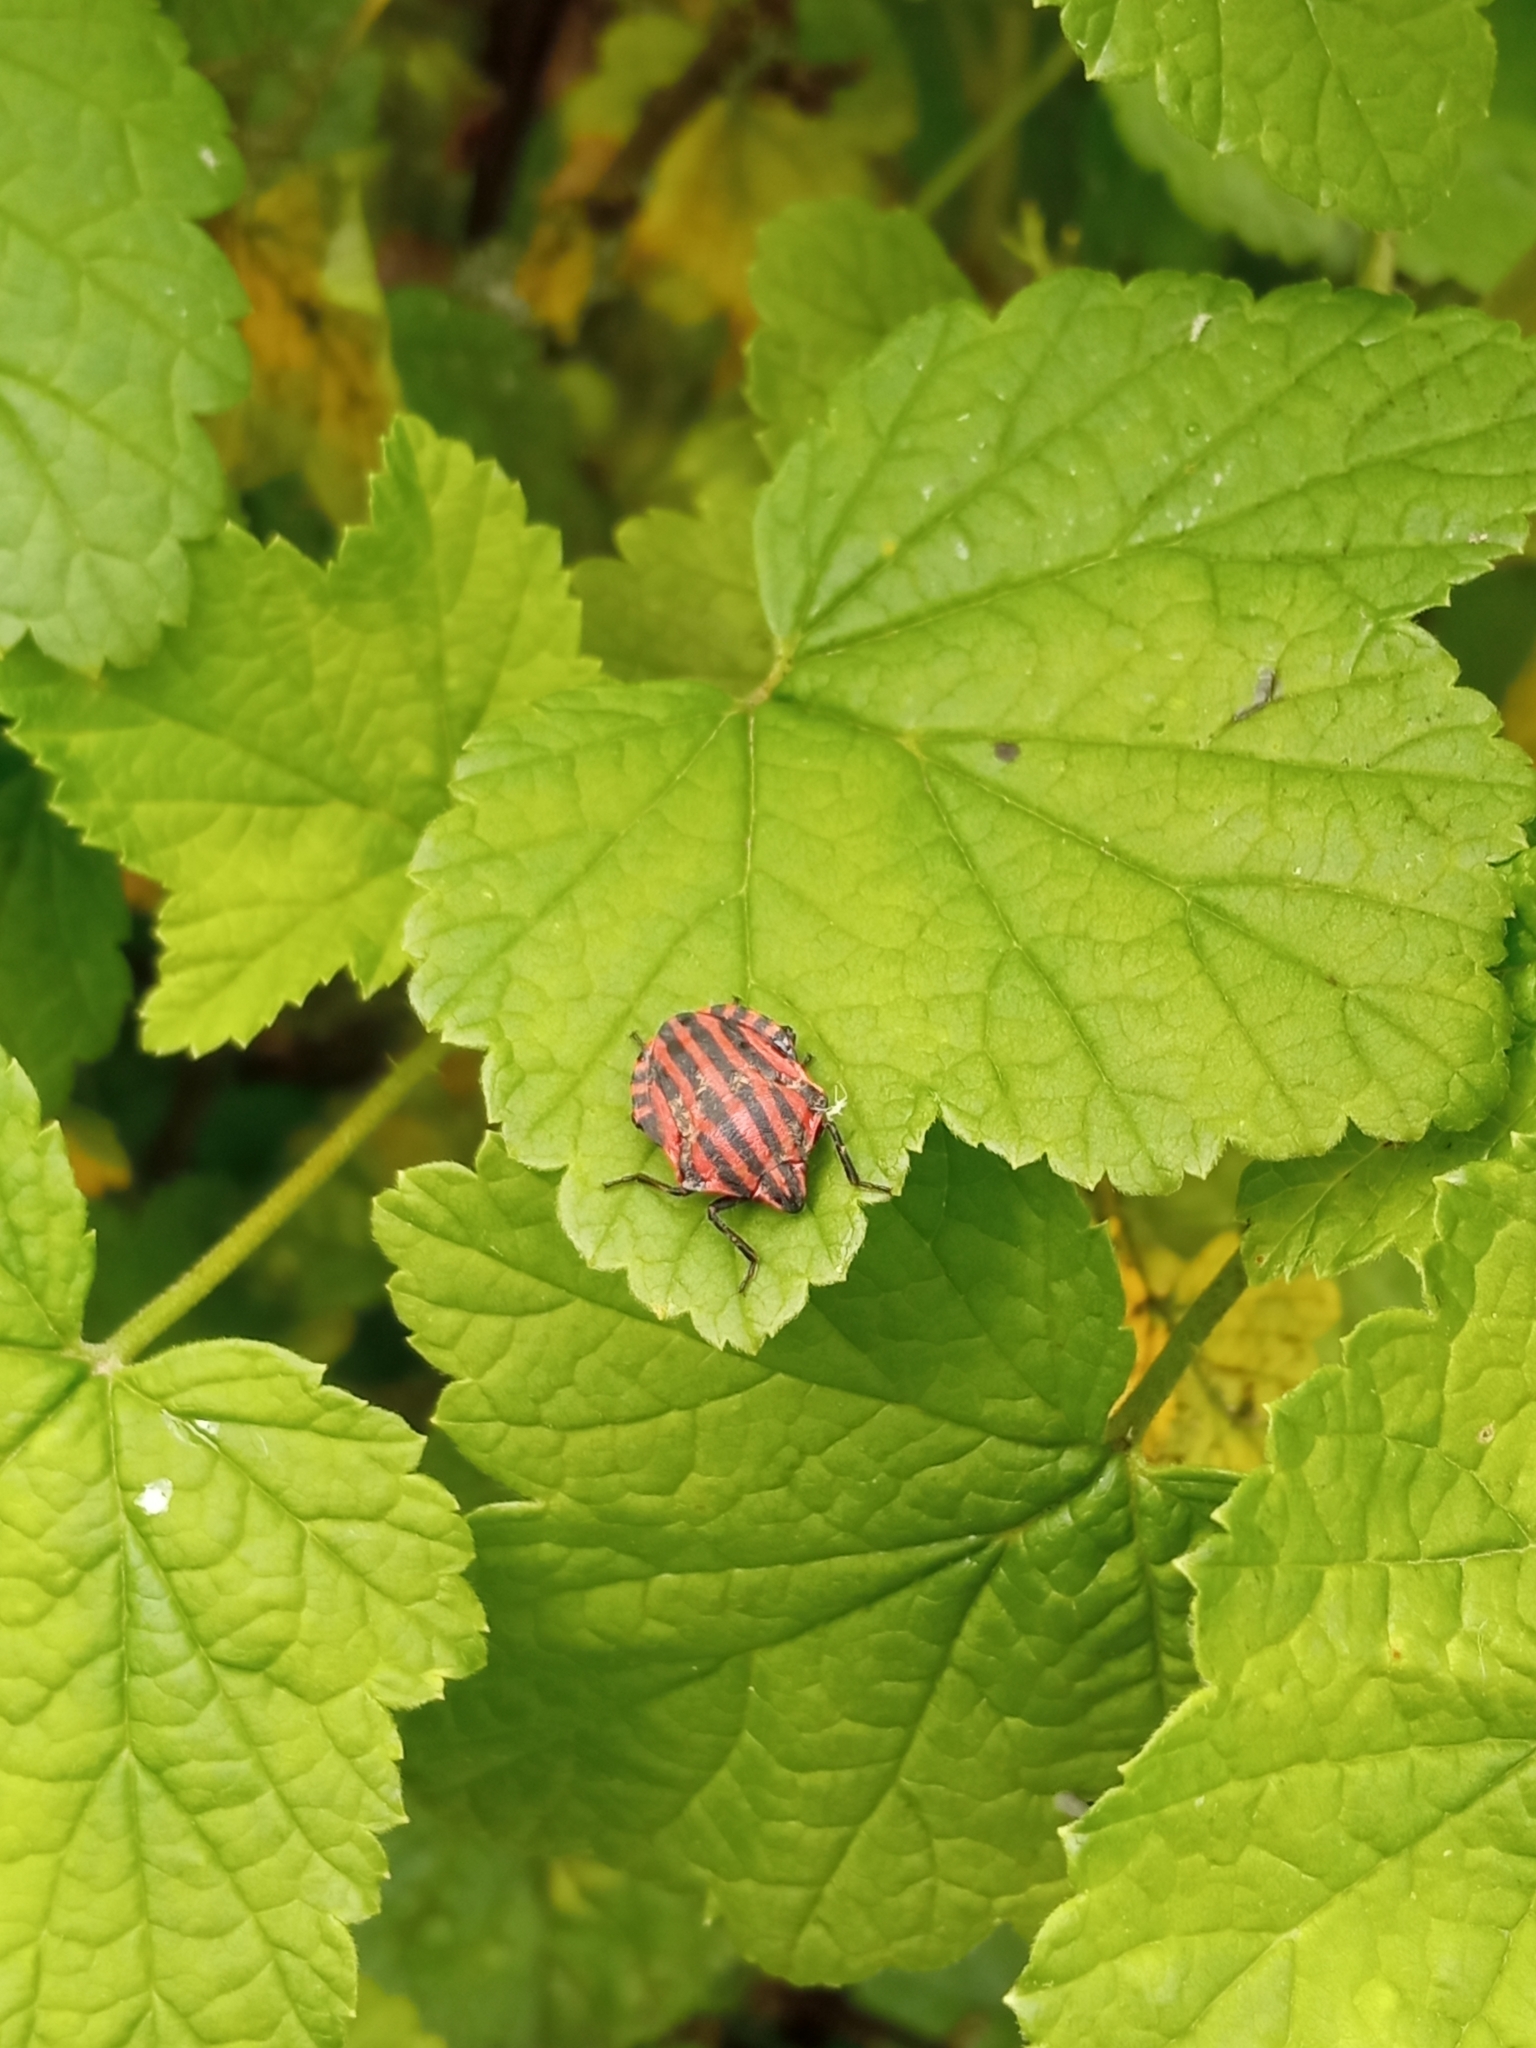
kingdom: Animalia
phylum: Arthropoda
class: Insecta
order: Hemiptera
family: Pentatomidae
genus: Graphosoma
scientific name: Graphosoma italicum
